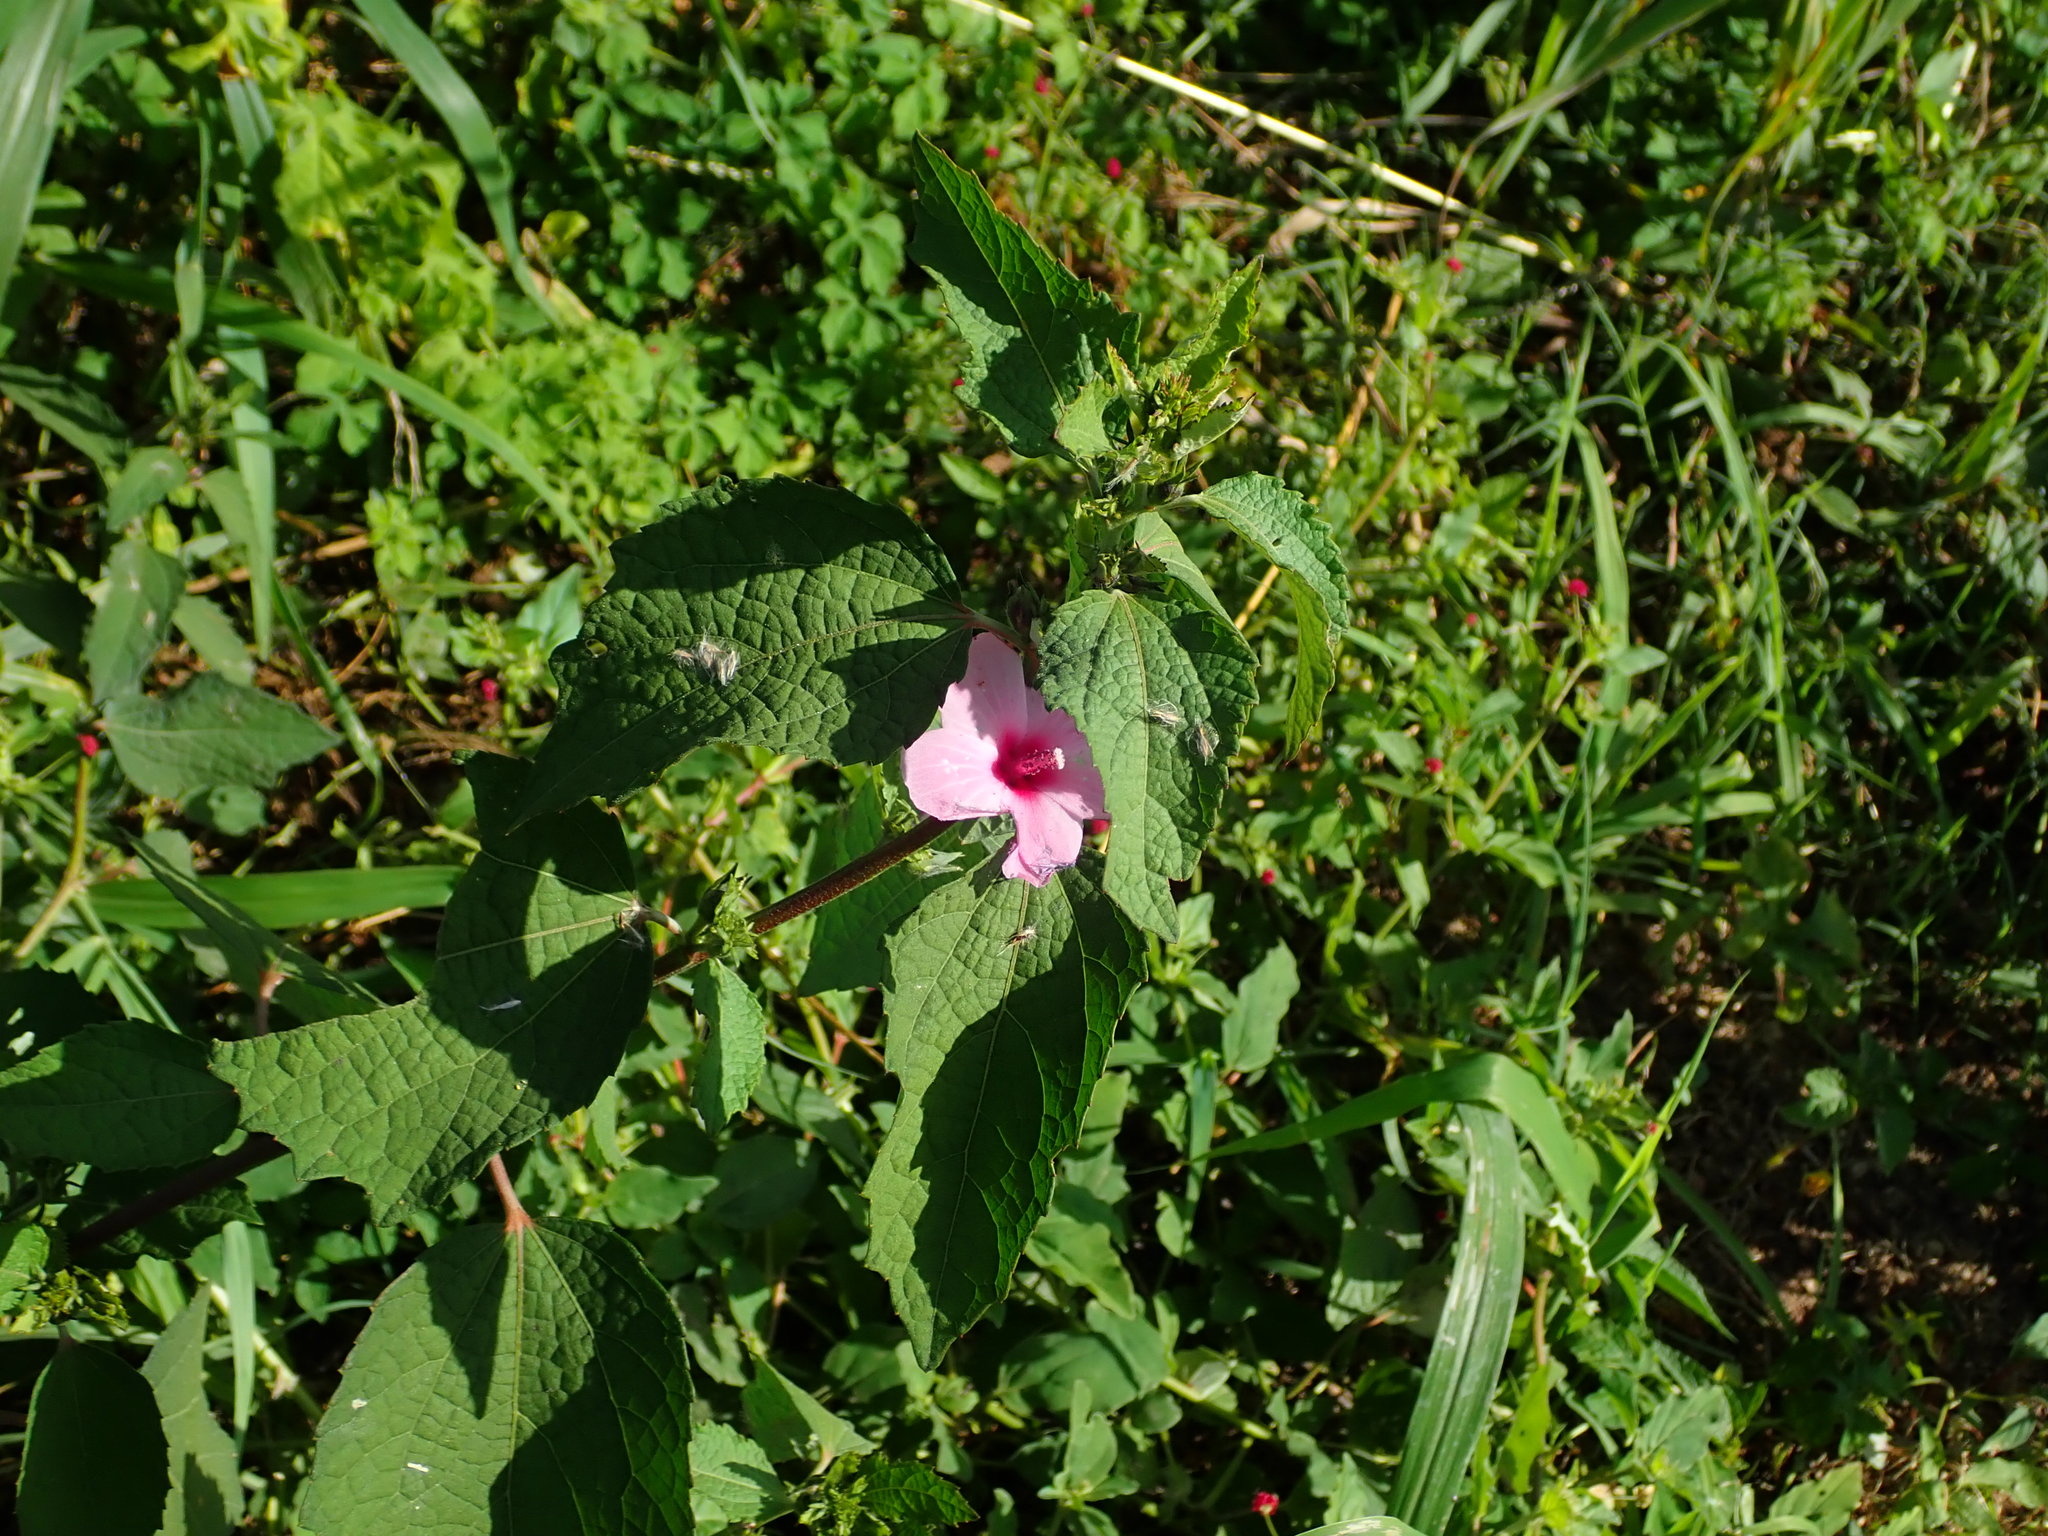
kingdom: Plantae
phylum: Tracheophyta
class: Magnoliopsida
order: Malvales
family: Malvaceae
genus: Urena
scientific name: Urena lobata
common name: Caesarweed
